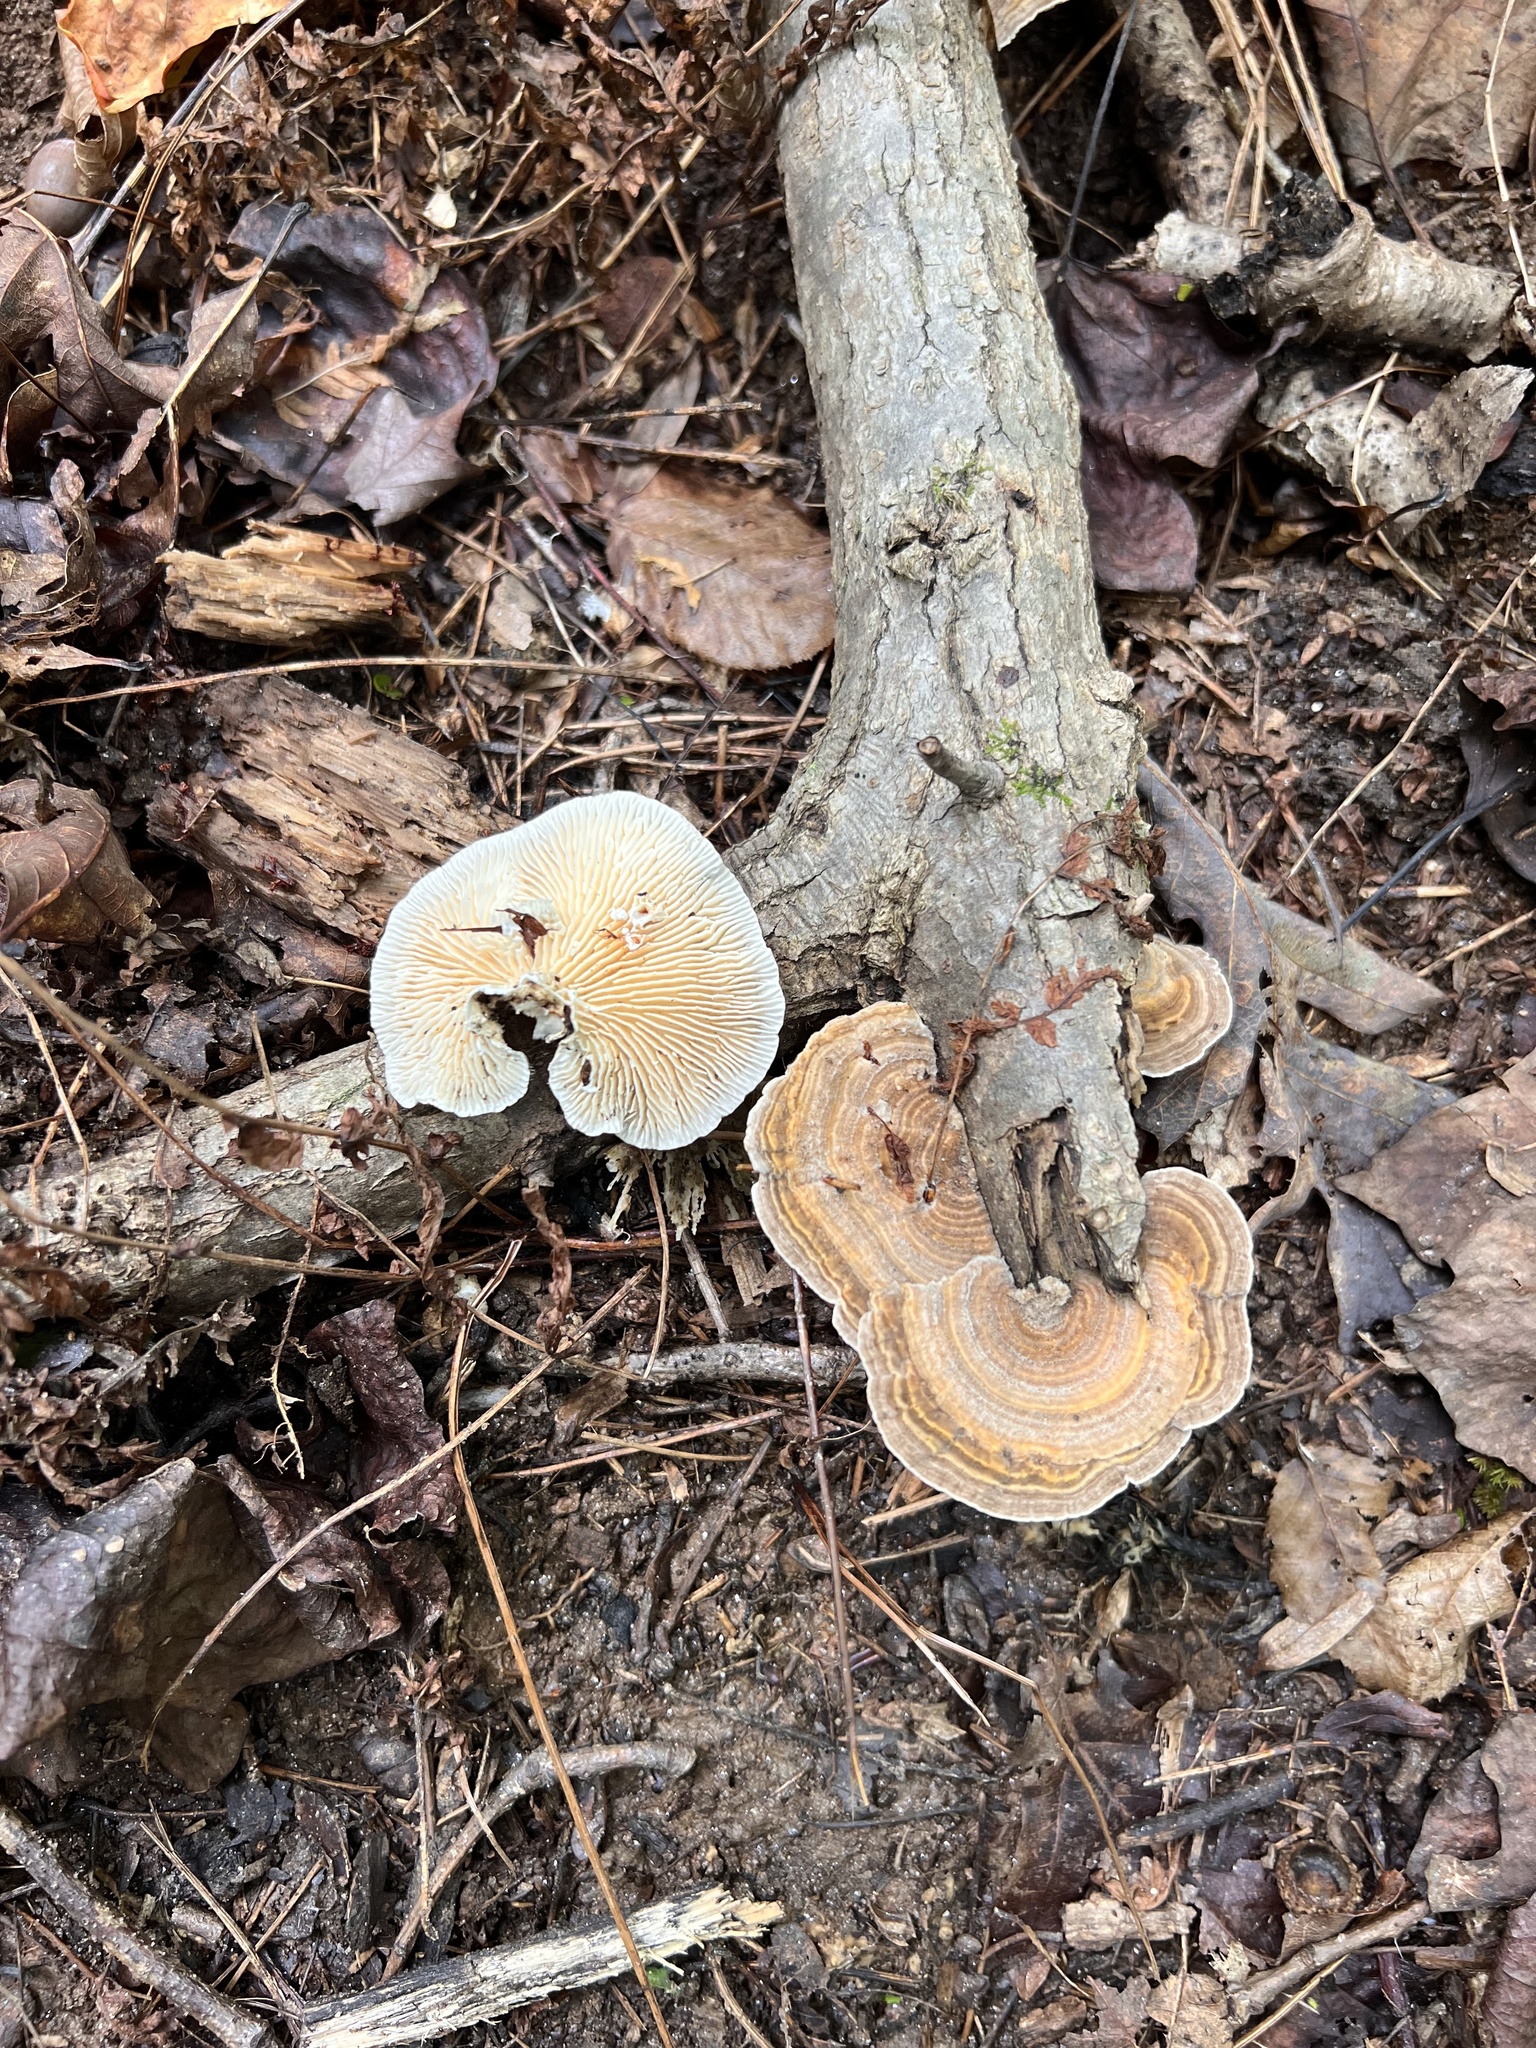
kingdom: Fungi
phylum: Basidiomycota
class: Agaricomycetes
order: Polyporales
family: Polyporaceae
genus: Lenzites
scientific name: Lenzites betulinus
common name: Birch mazegill
